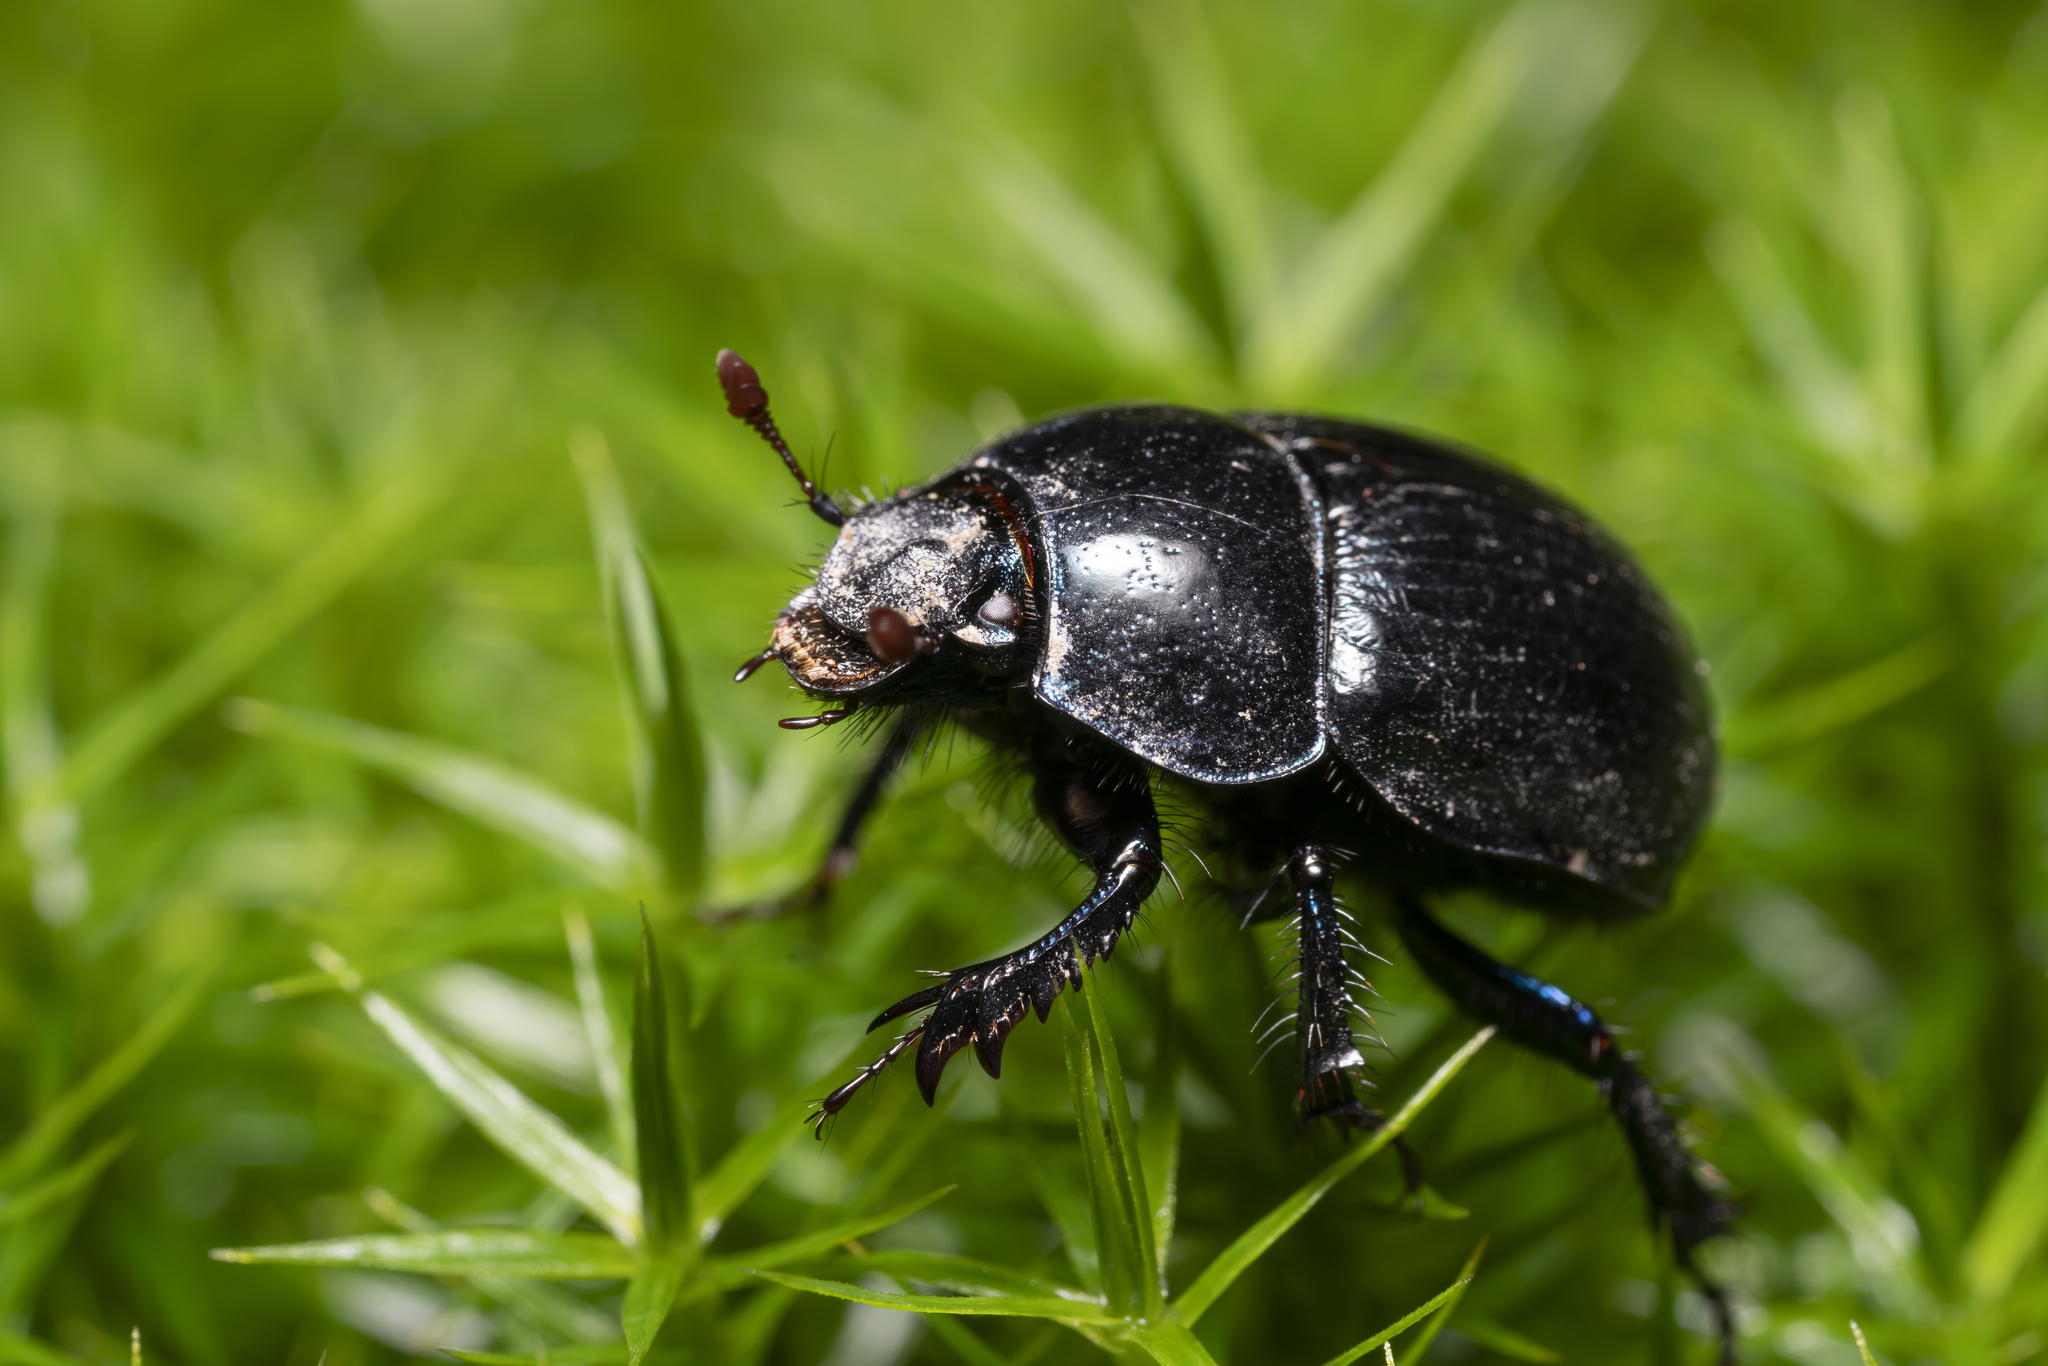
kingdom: Animalia
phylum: Arthropoda
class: Insecta
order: Coleoptera
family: Geotrupidae
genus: Anoplotrupes
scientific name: Anoplotrupes stercorosus
